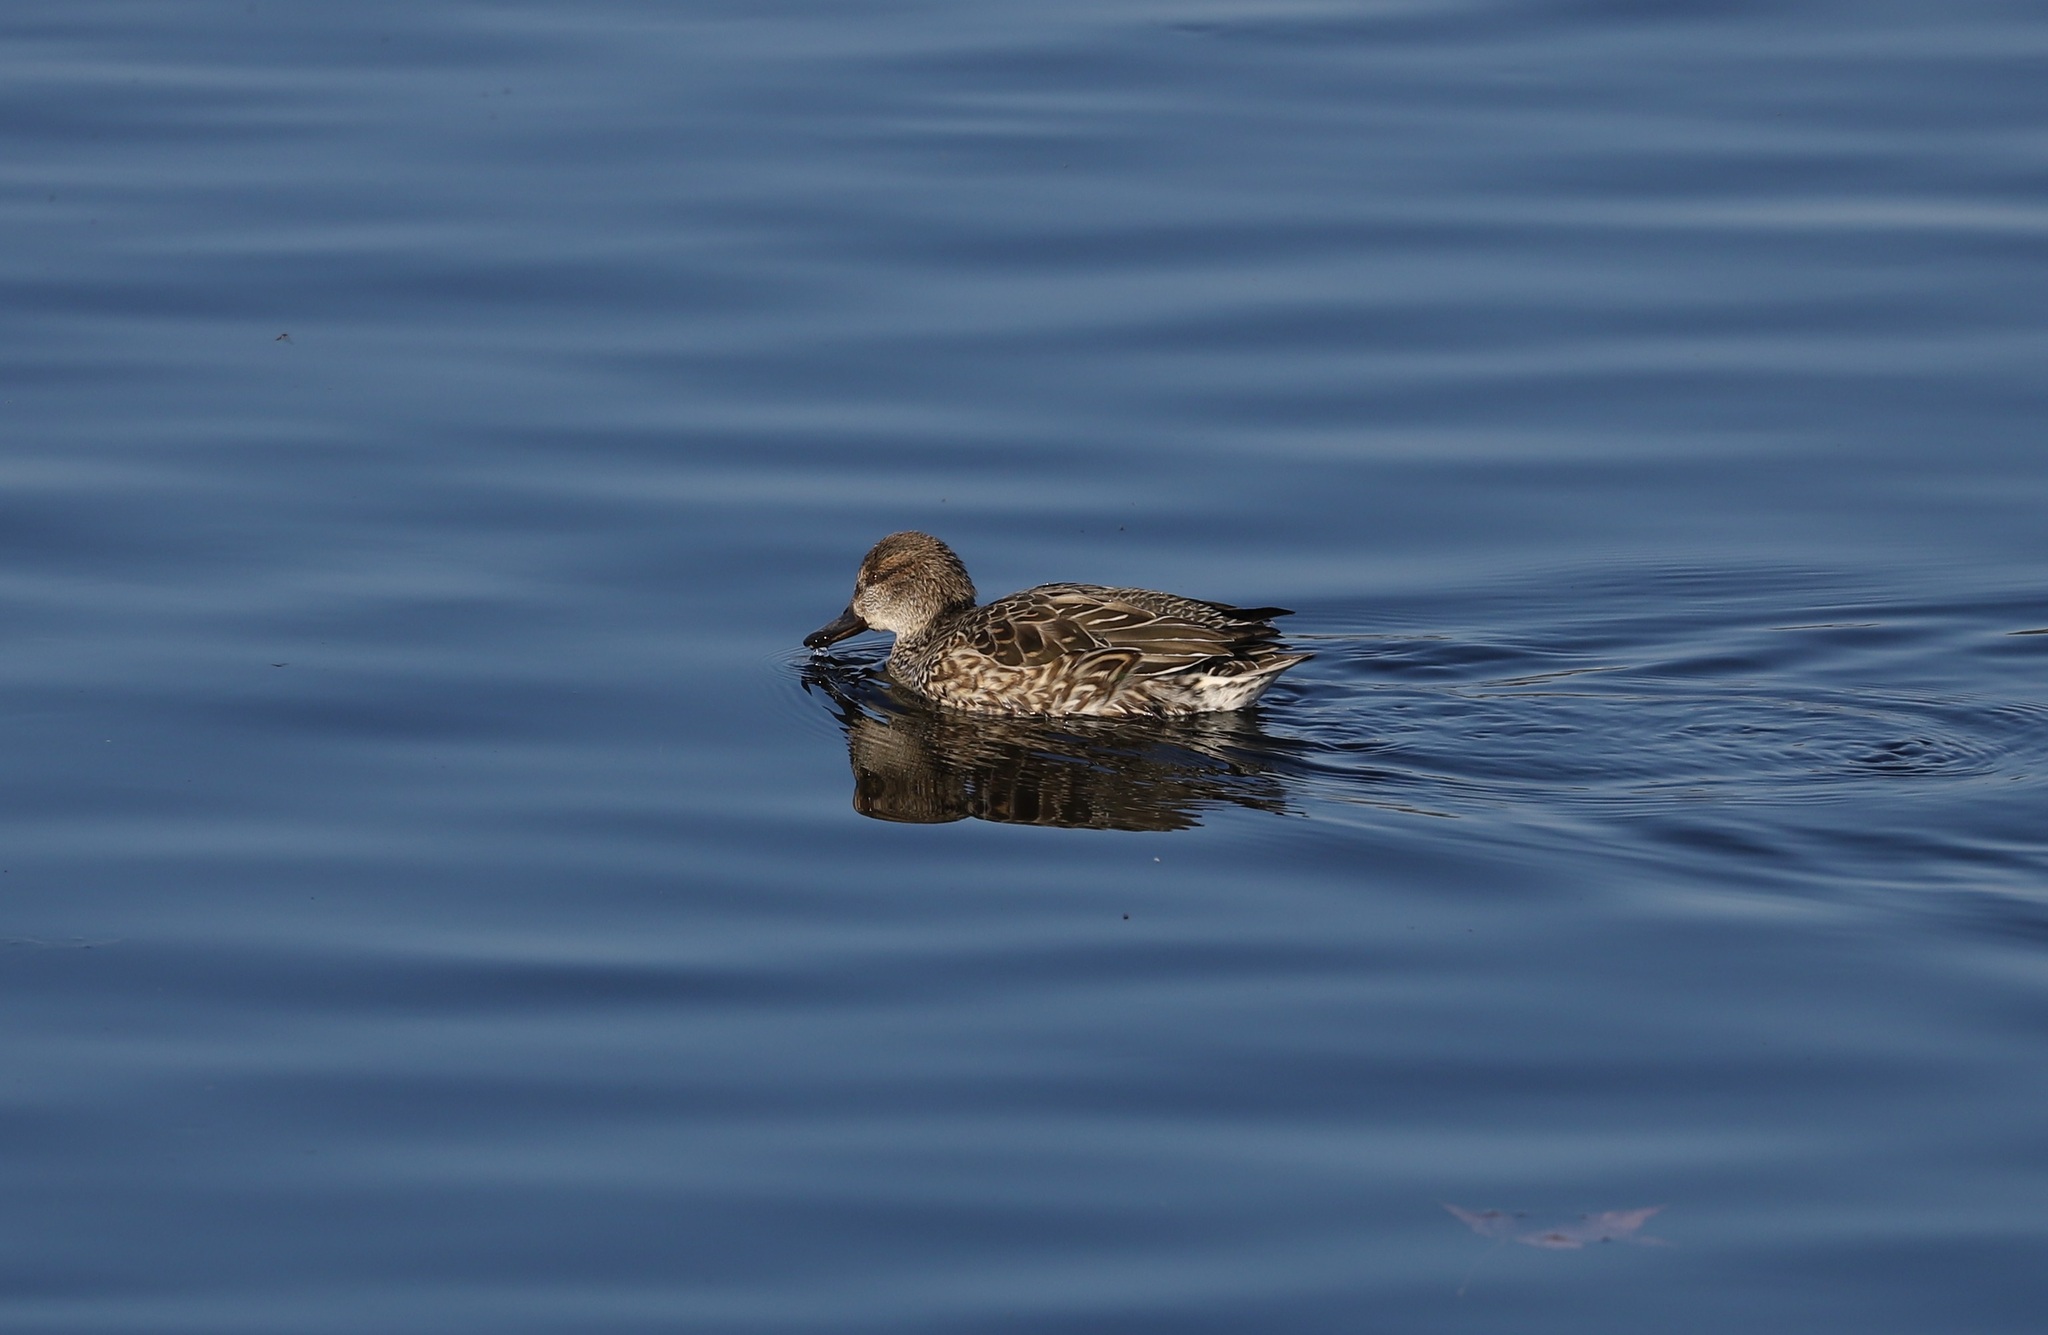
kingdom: Animalia
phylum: Chordata
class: Aves
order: Anseriformes
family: Anatidae
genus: Anas
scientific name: Anas crecca
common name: Eurasian teal
